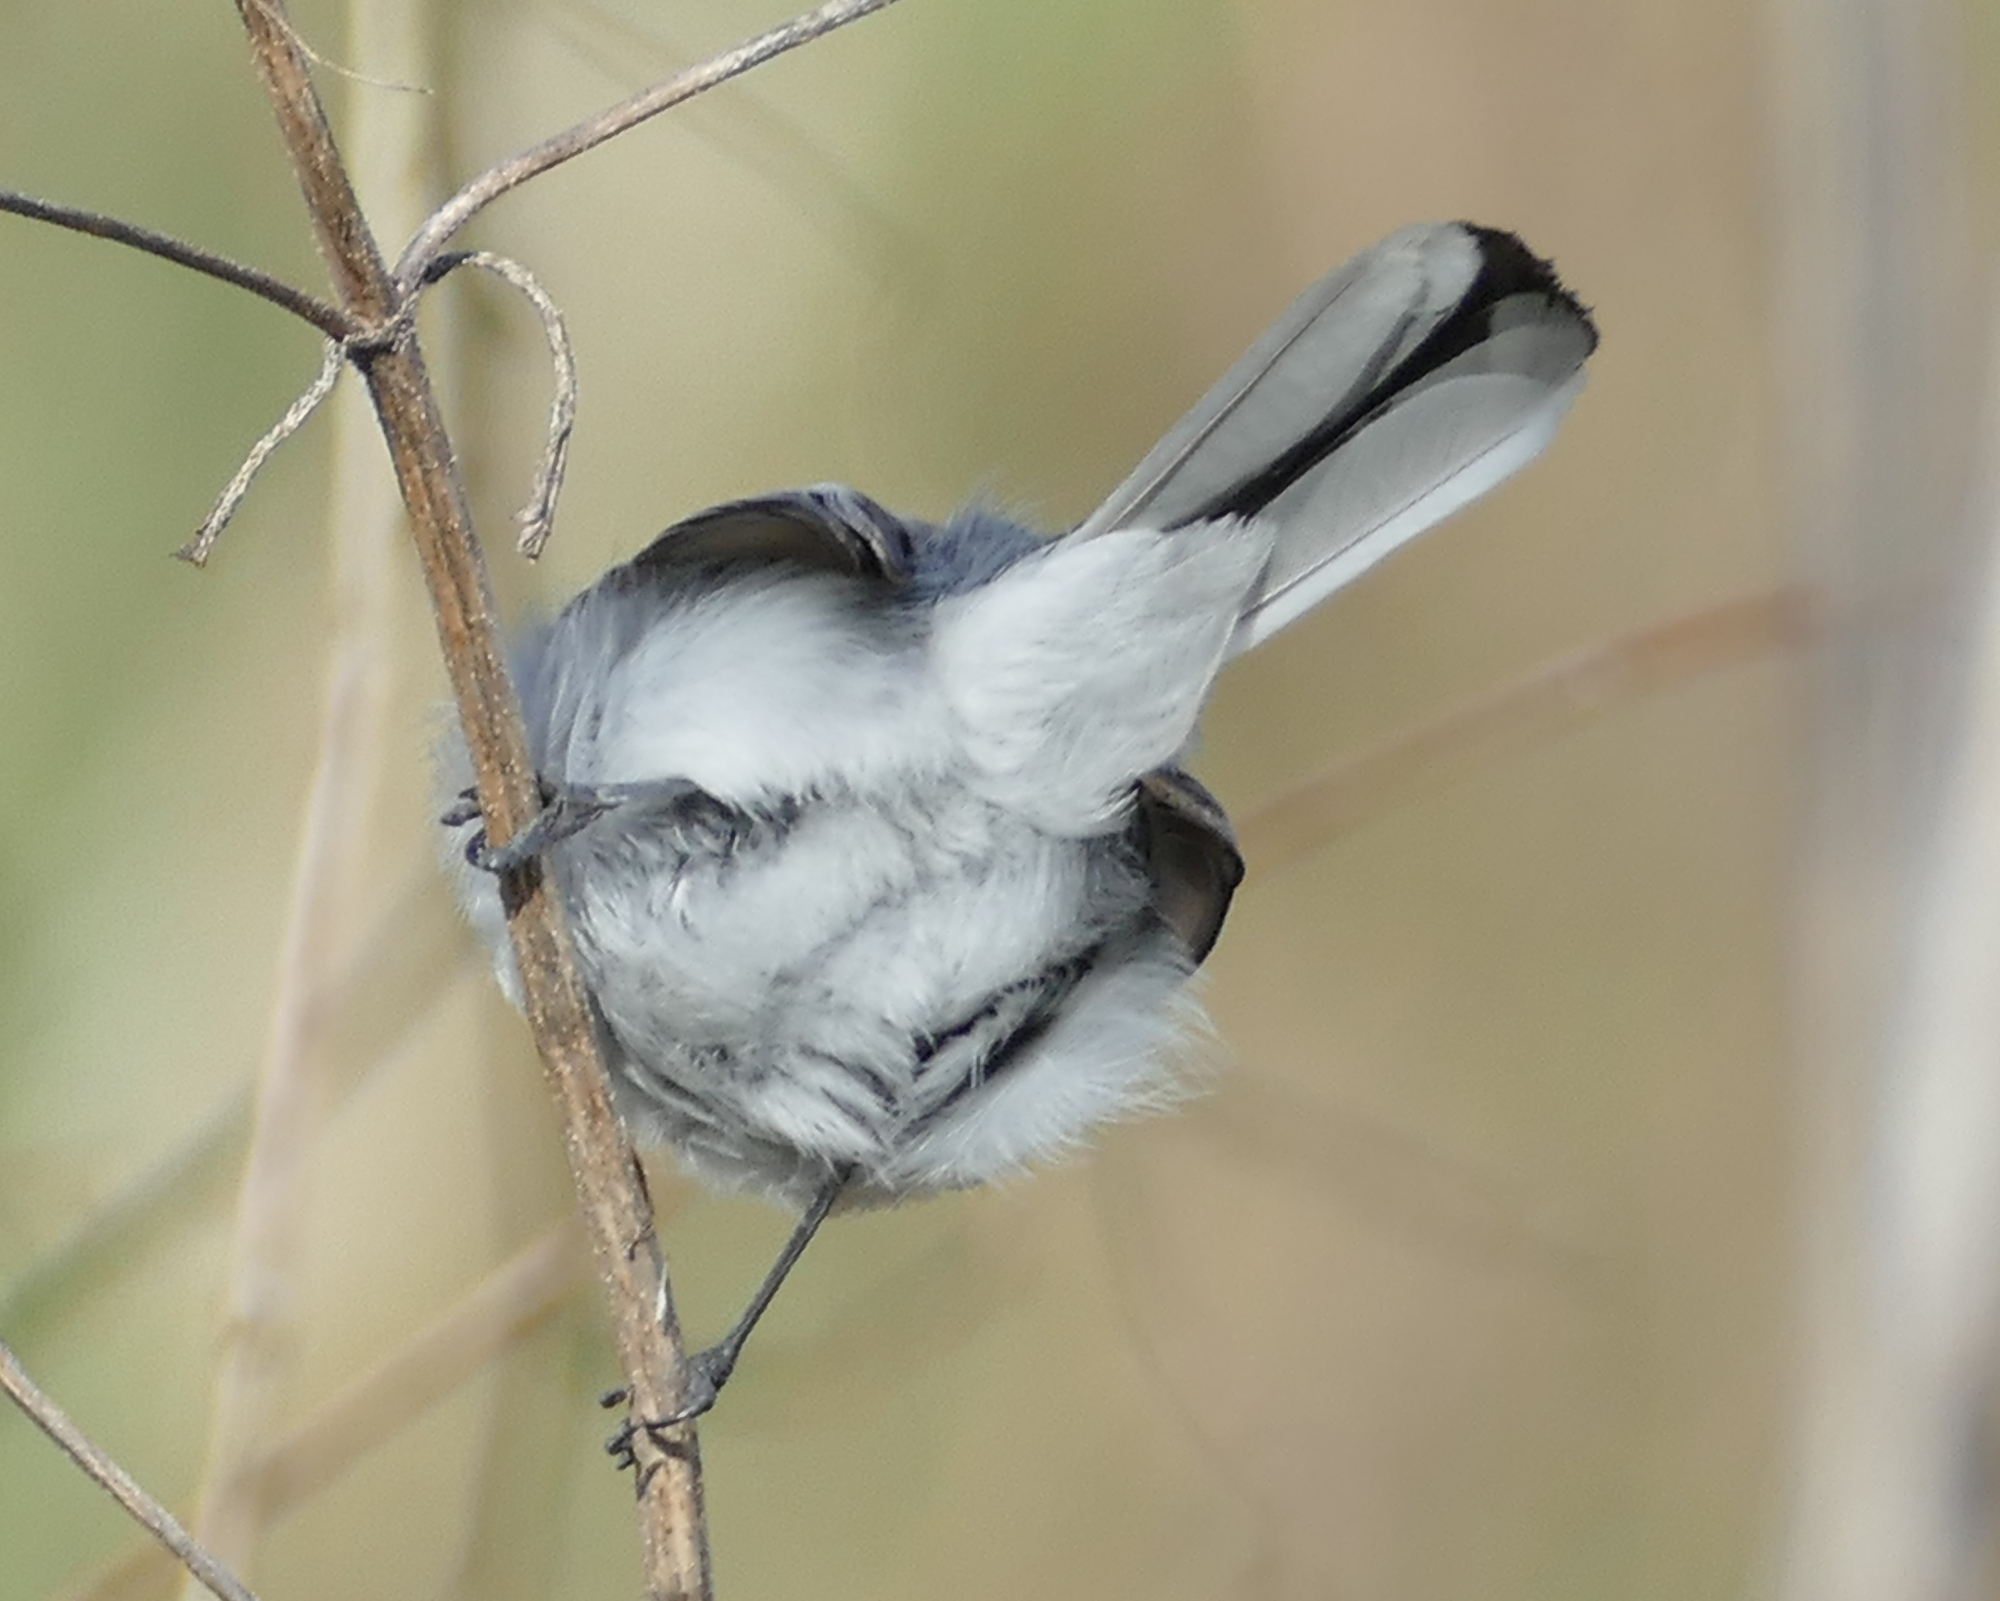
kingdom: Animalia
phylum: Chordata
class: Aves
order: Passeriformes
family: Polioptilidae
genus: Polioptila
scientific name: Polioptila caerulea
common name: Blue-gray gnatcatcher
